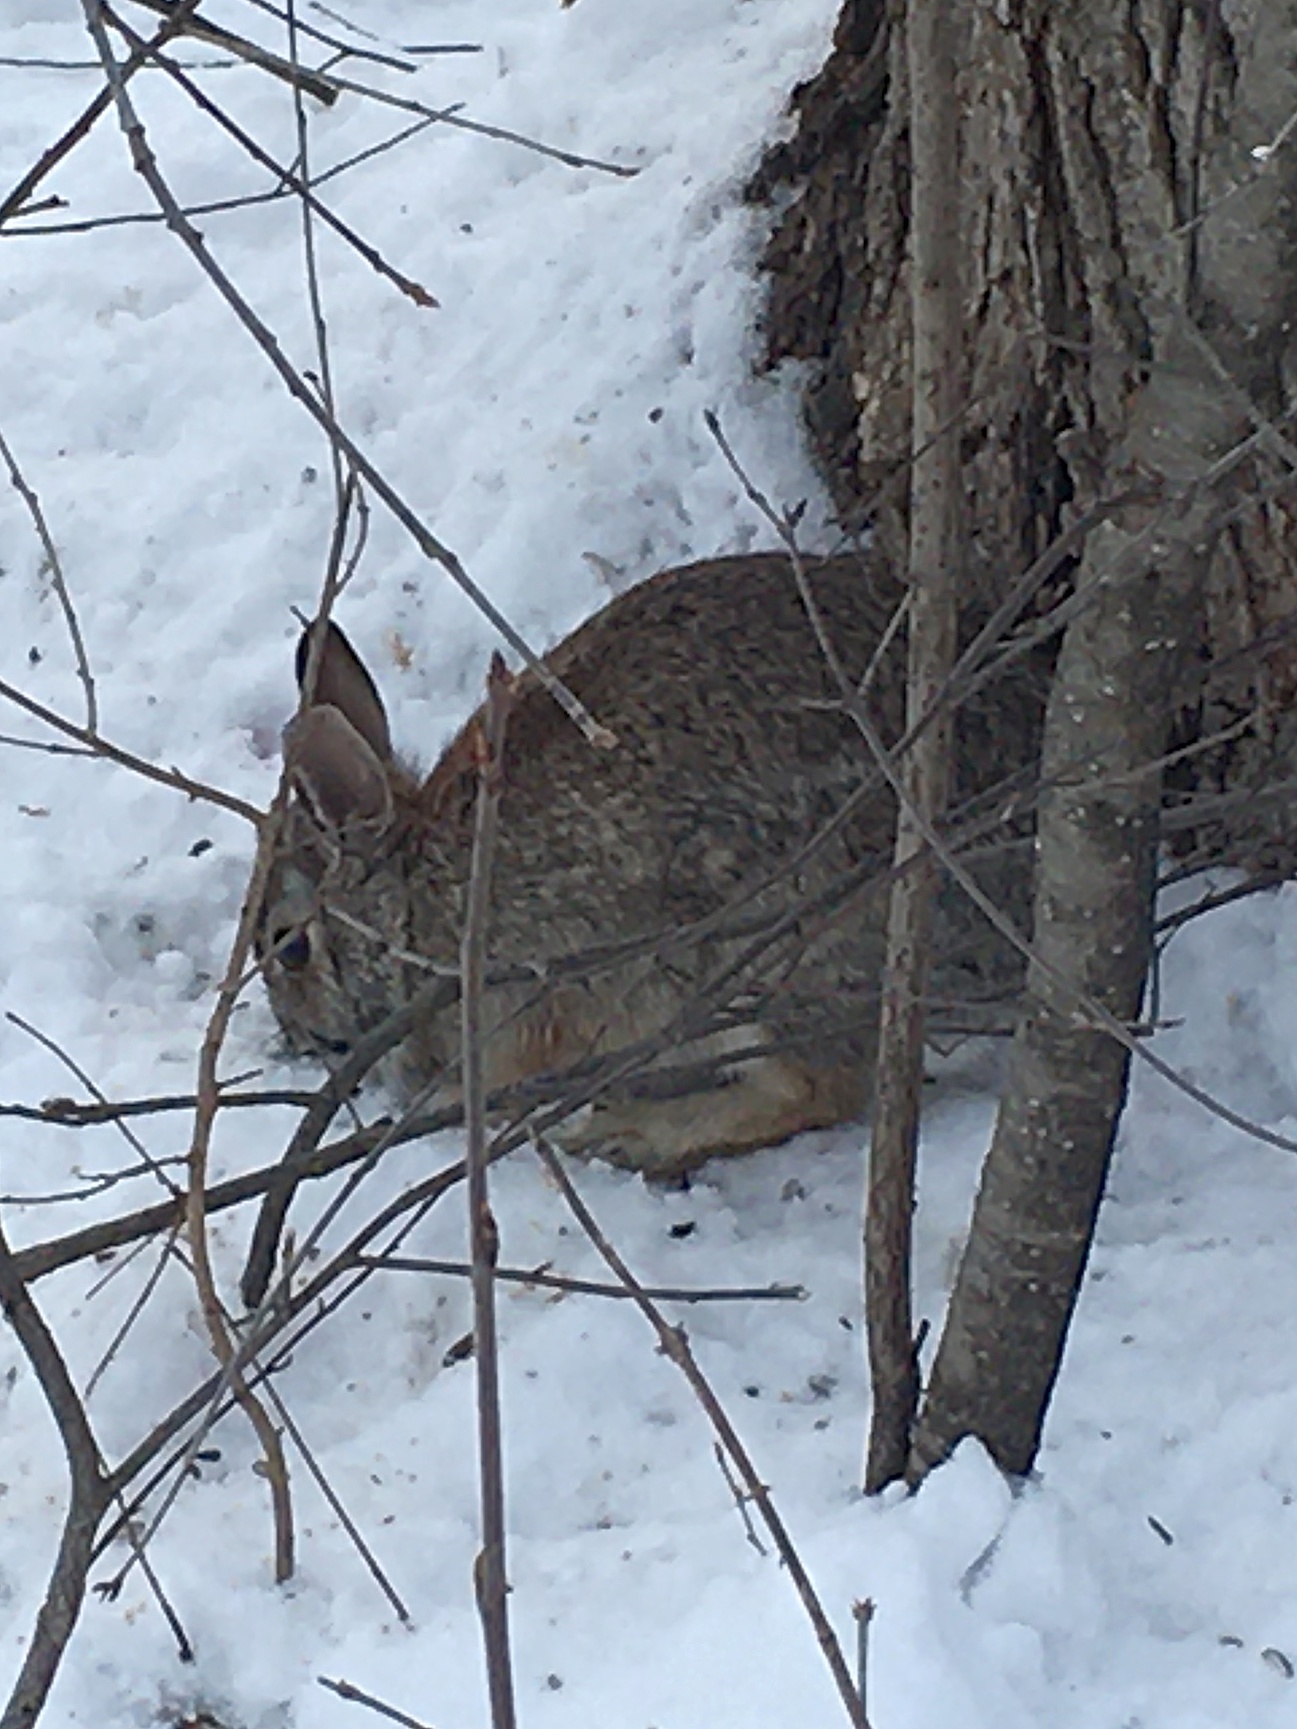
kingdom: Animalia
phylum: Chordata
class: Mammalia
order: Lagomorpha
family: Leporidae
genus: Sylvilagus
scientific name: Sylvilagus floridanus
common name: Eastern cottontail
